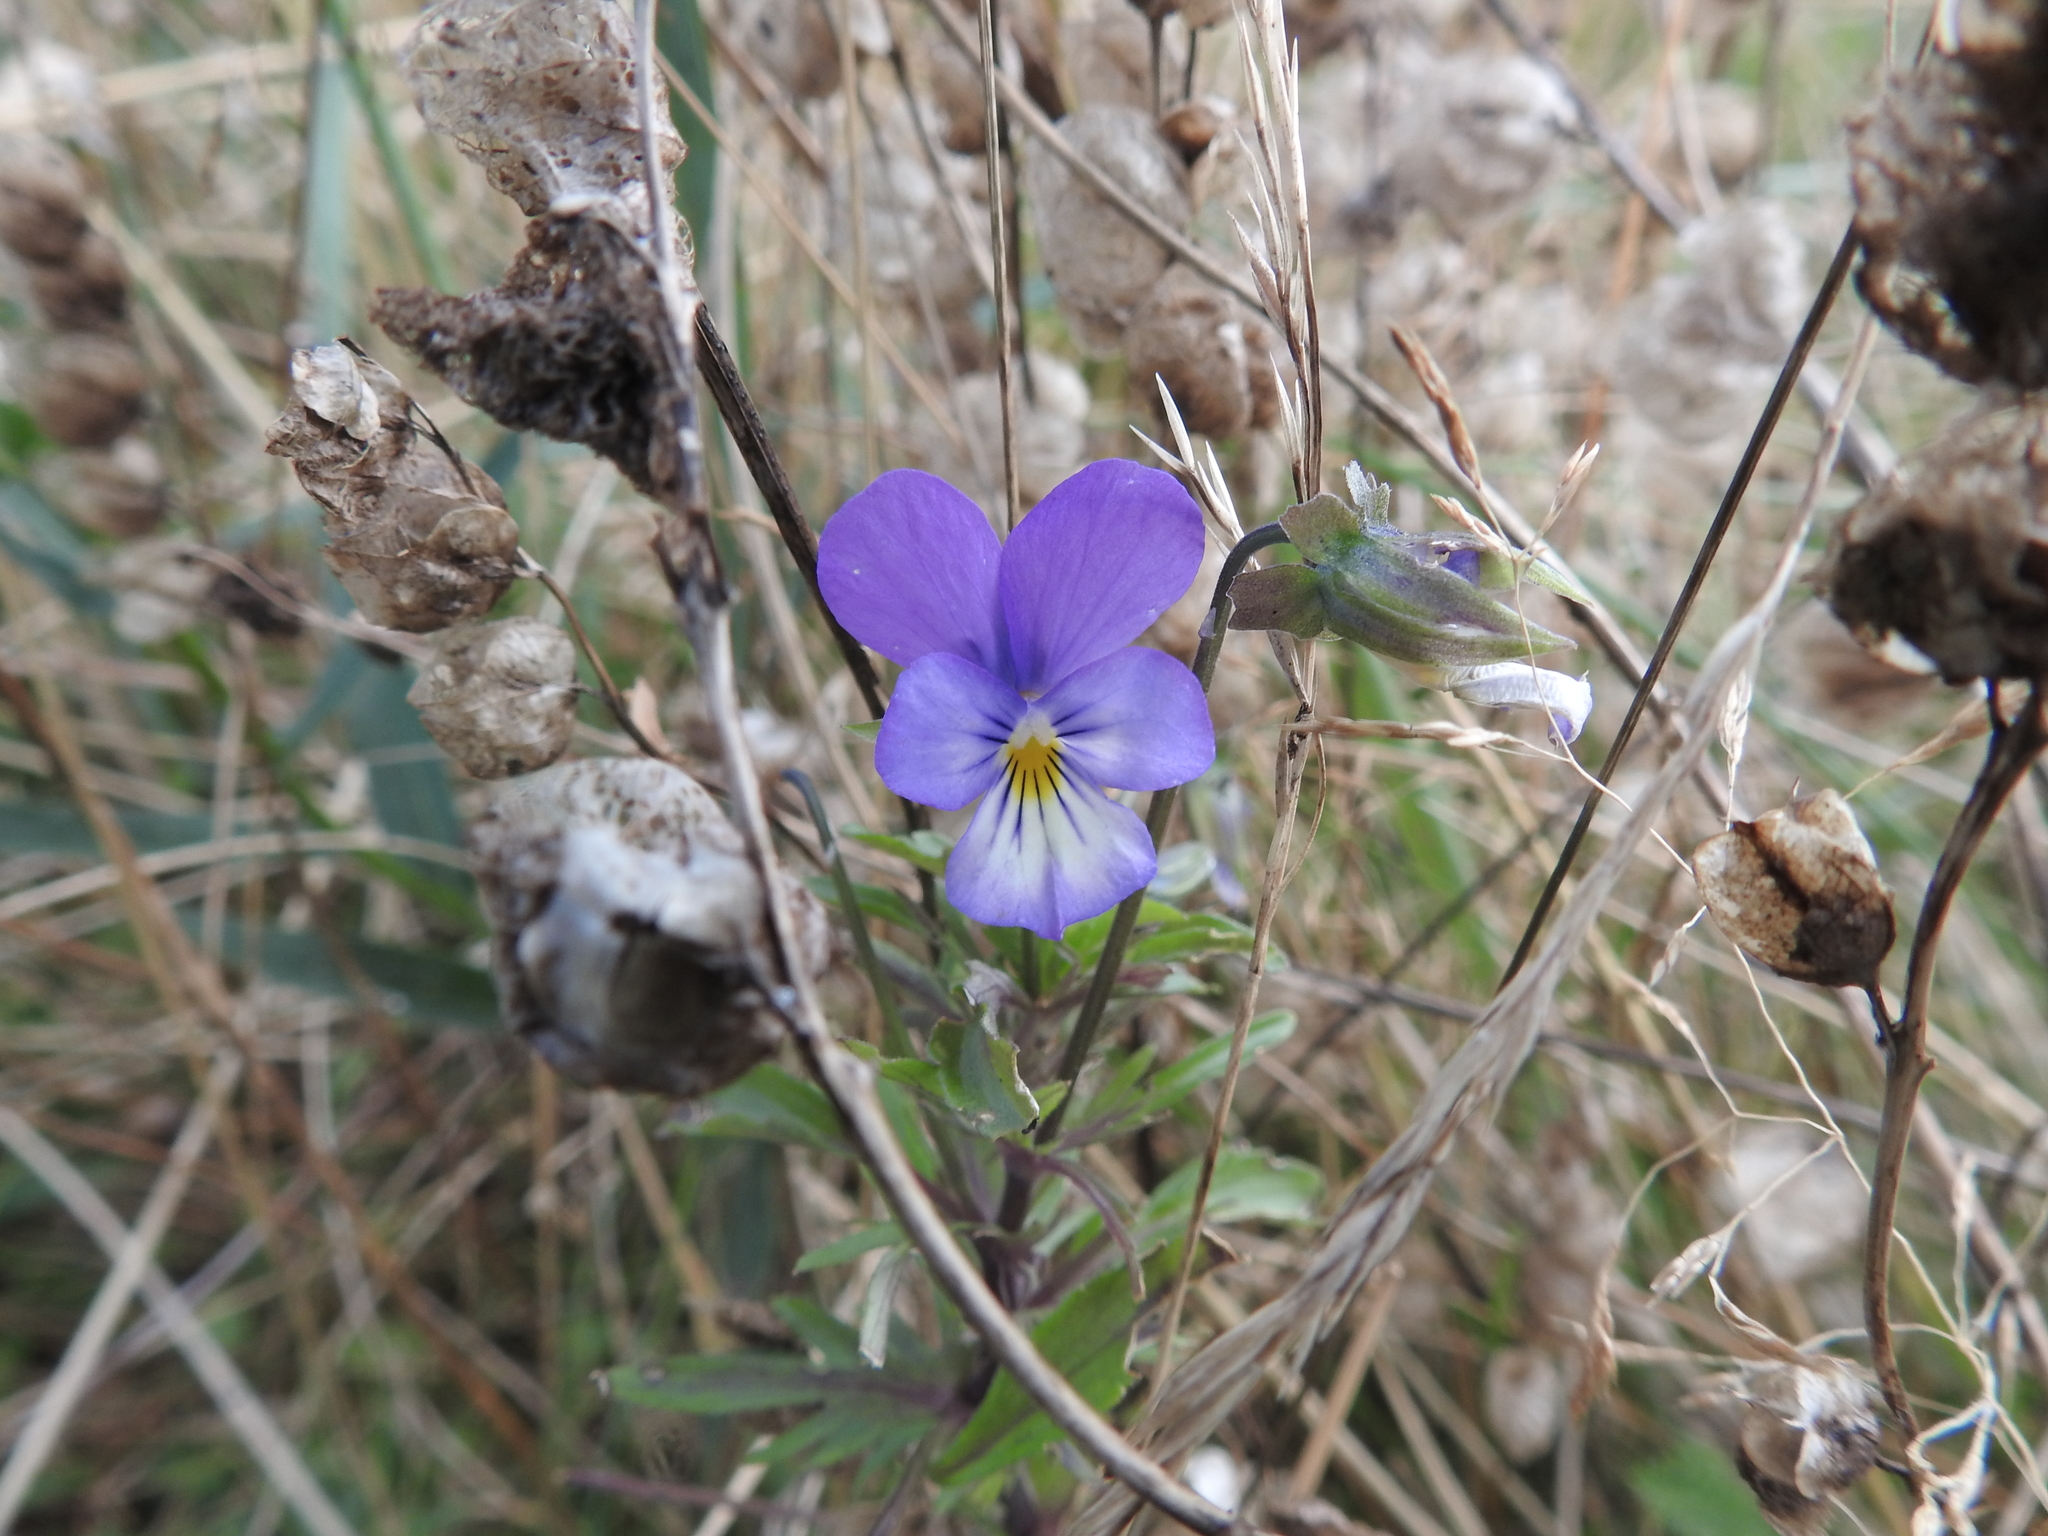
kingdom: Plantae
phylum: Tracheophyta
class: Magnoliopsida
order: Malpighiales
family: Violaceae
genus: Viola
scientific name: Viola tricolor
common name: Pansy
